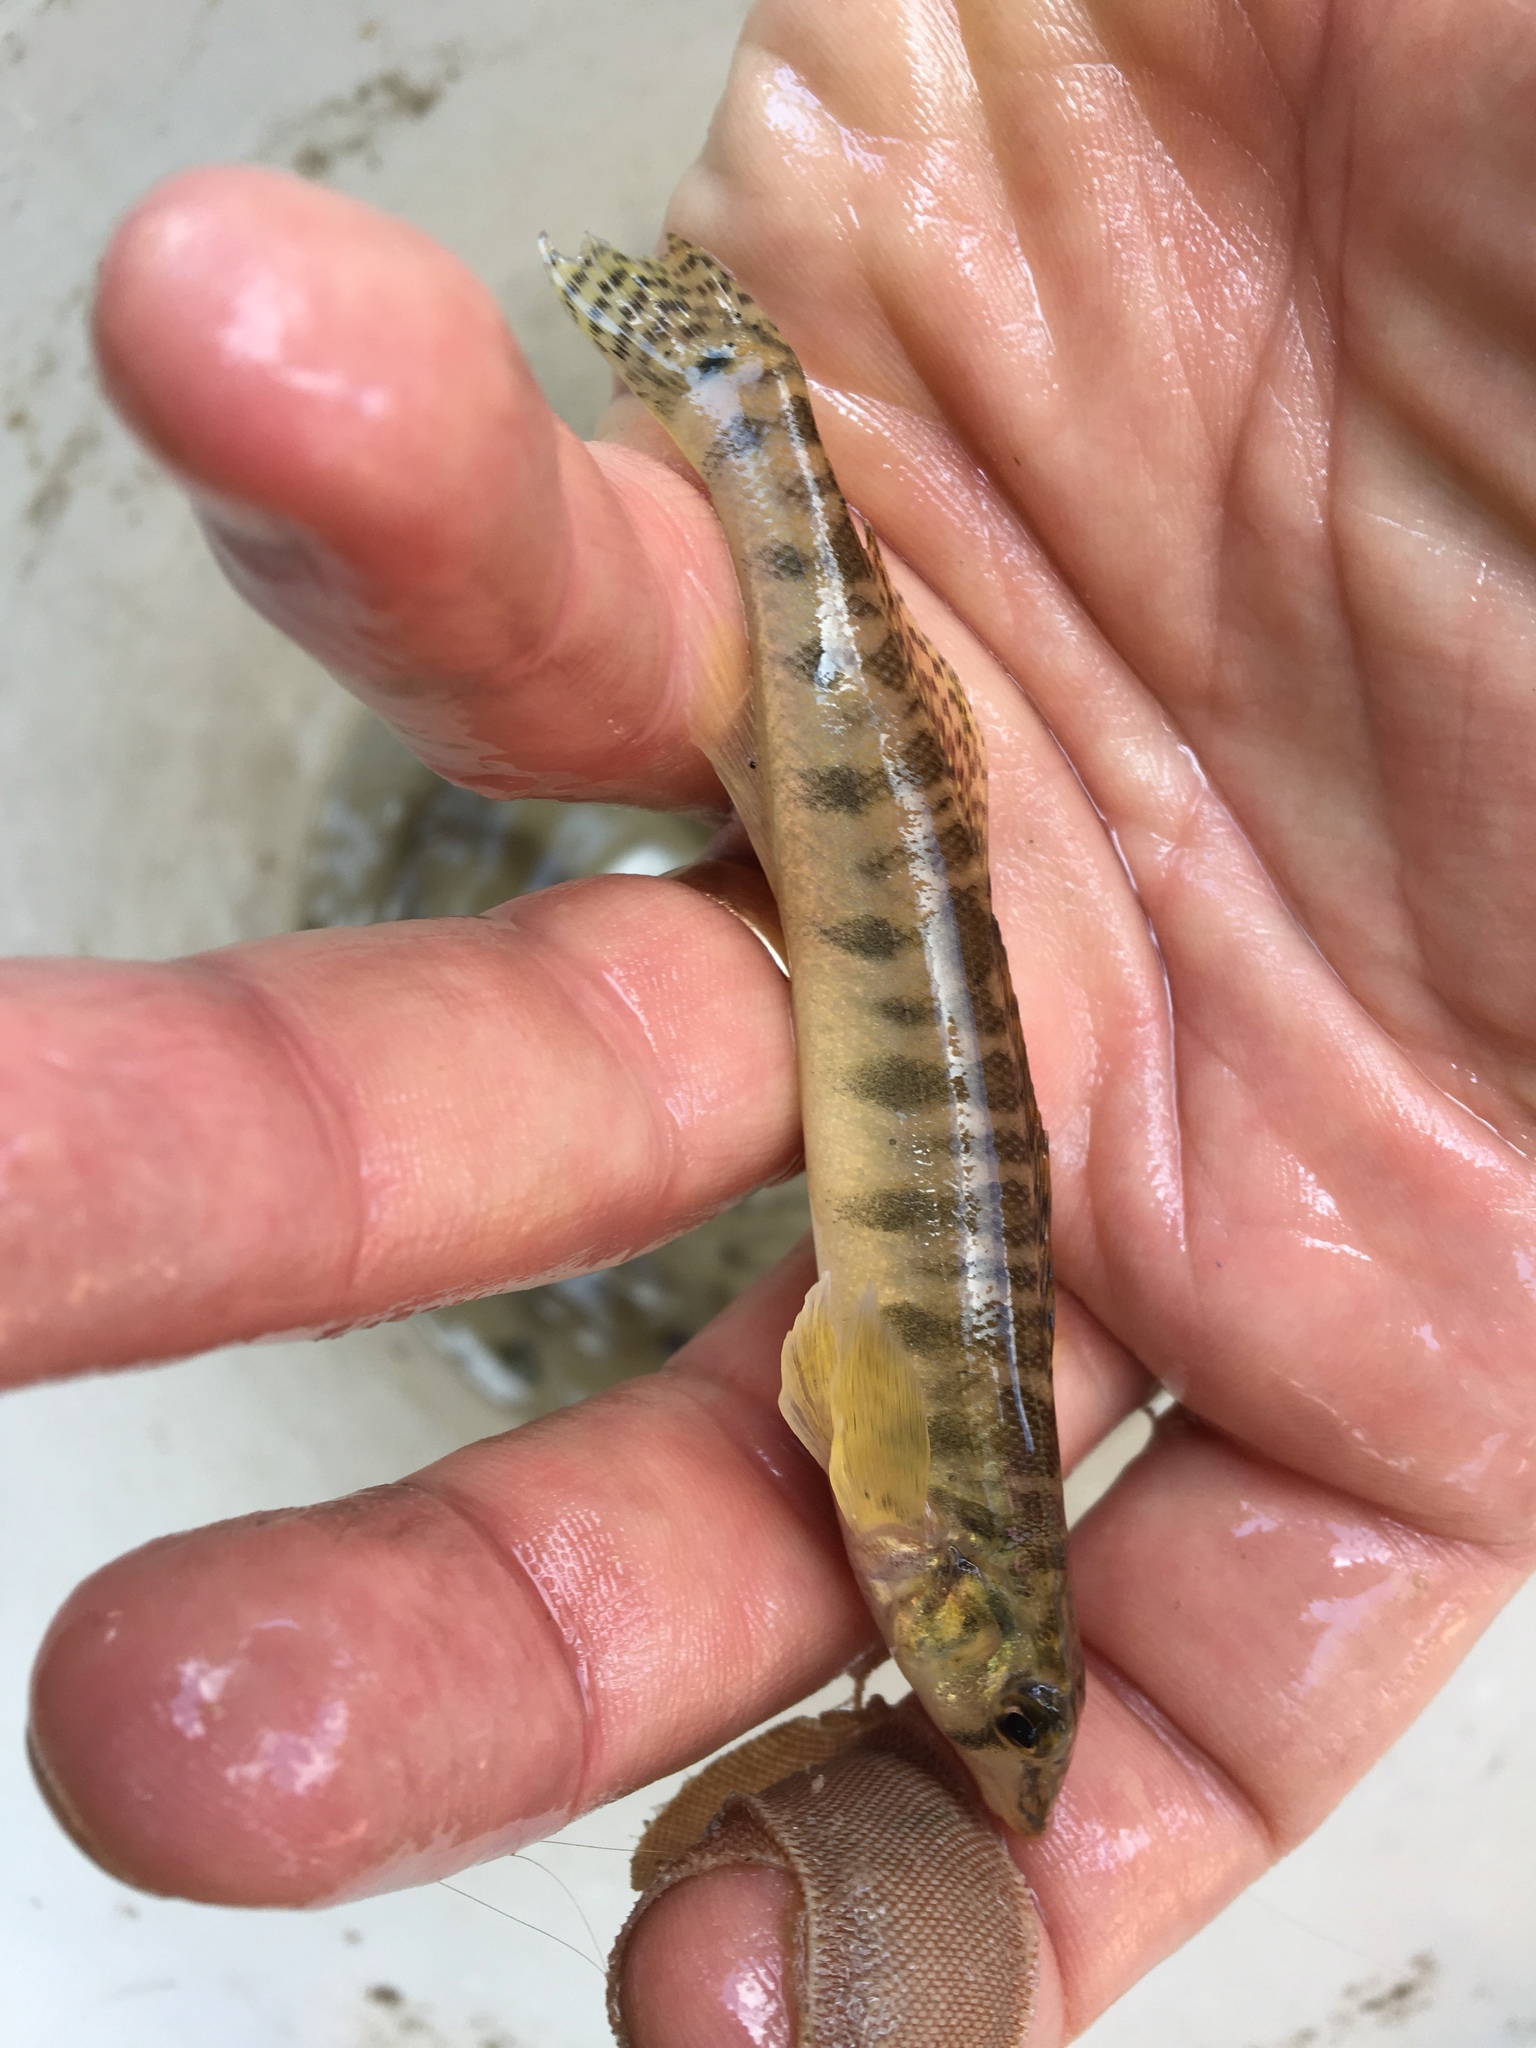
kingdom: Animalia
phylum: Chordata
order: Perciformes
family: Percidae
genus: Percina
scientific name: Percina carbonaria
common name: Texas logperch
